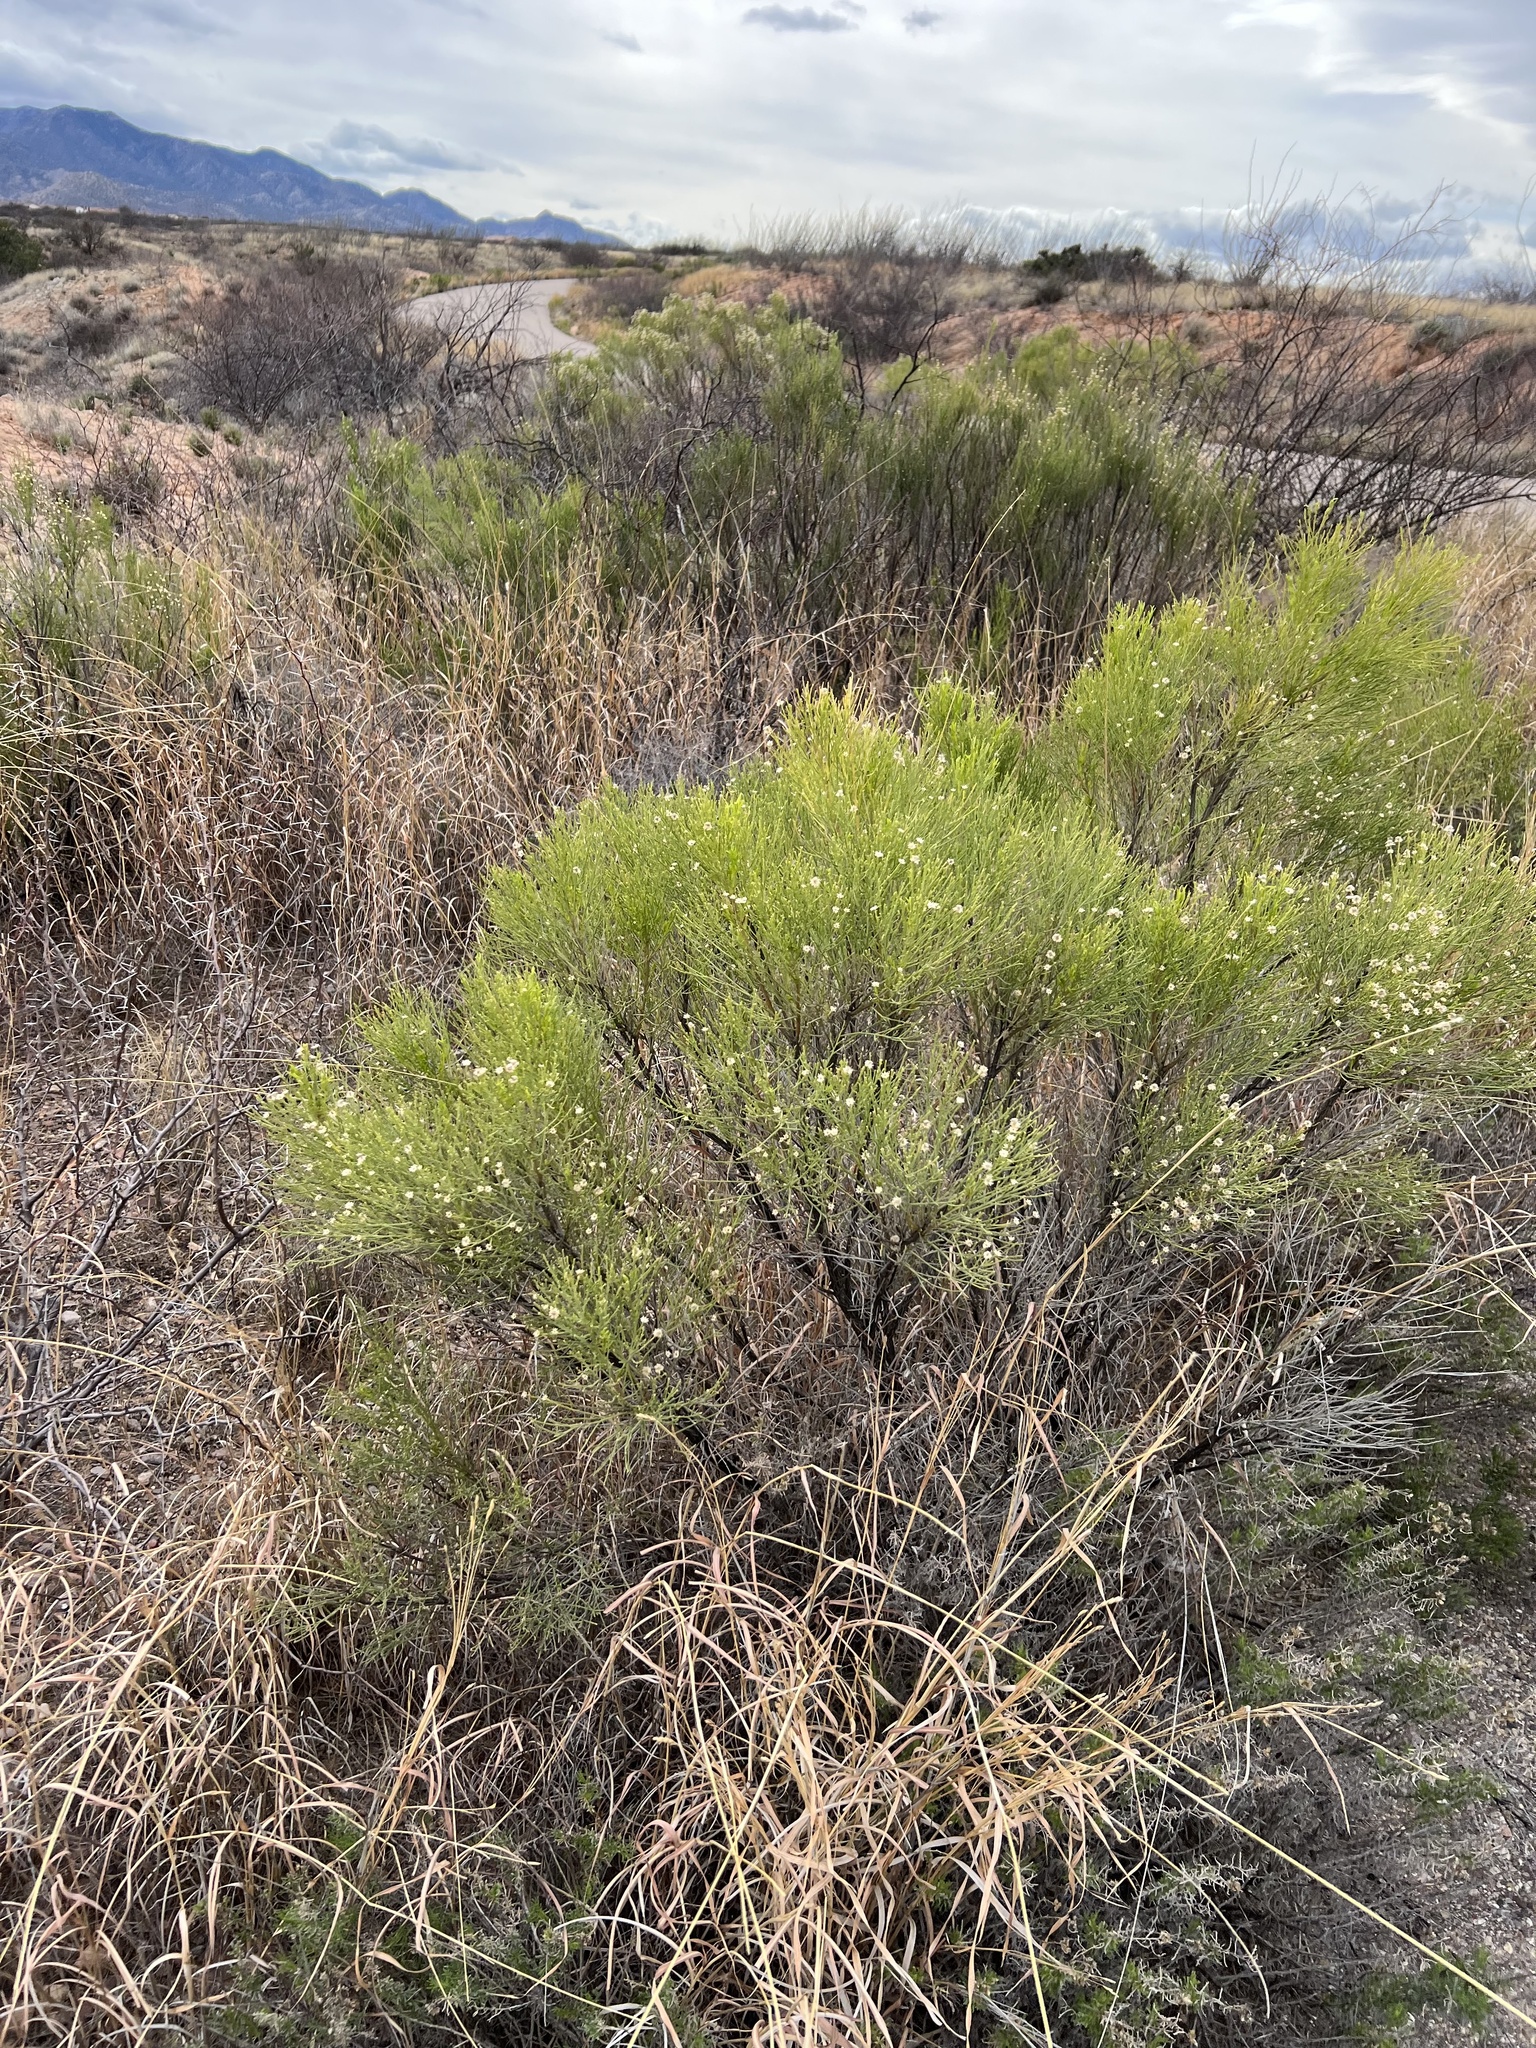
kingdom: Plantae
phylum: Tracheophyta
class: Magnoliopsida
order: Asterales
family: Asteraceae
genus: Baccharis
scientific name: Baccharis sarothroides
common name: Desert-broom
